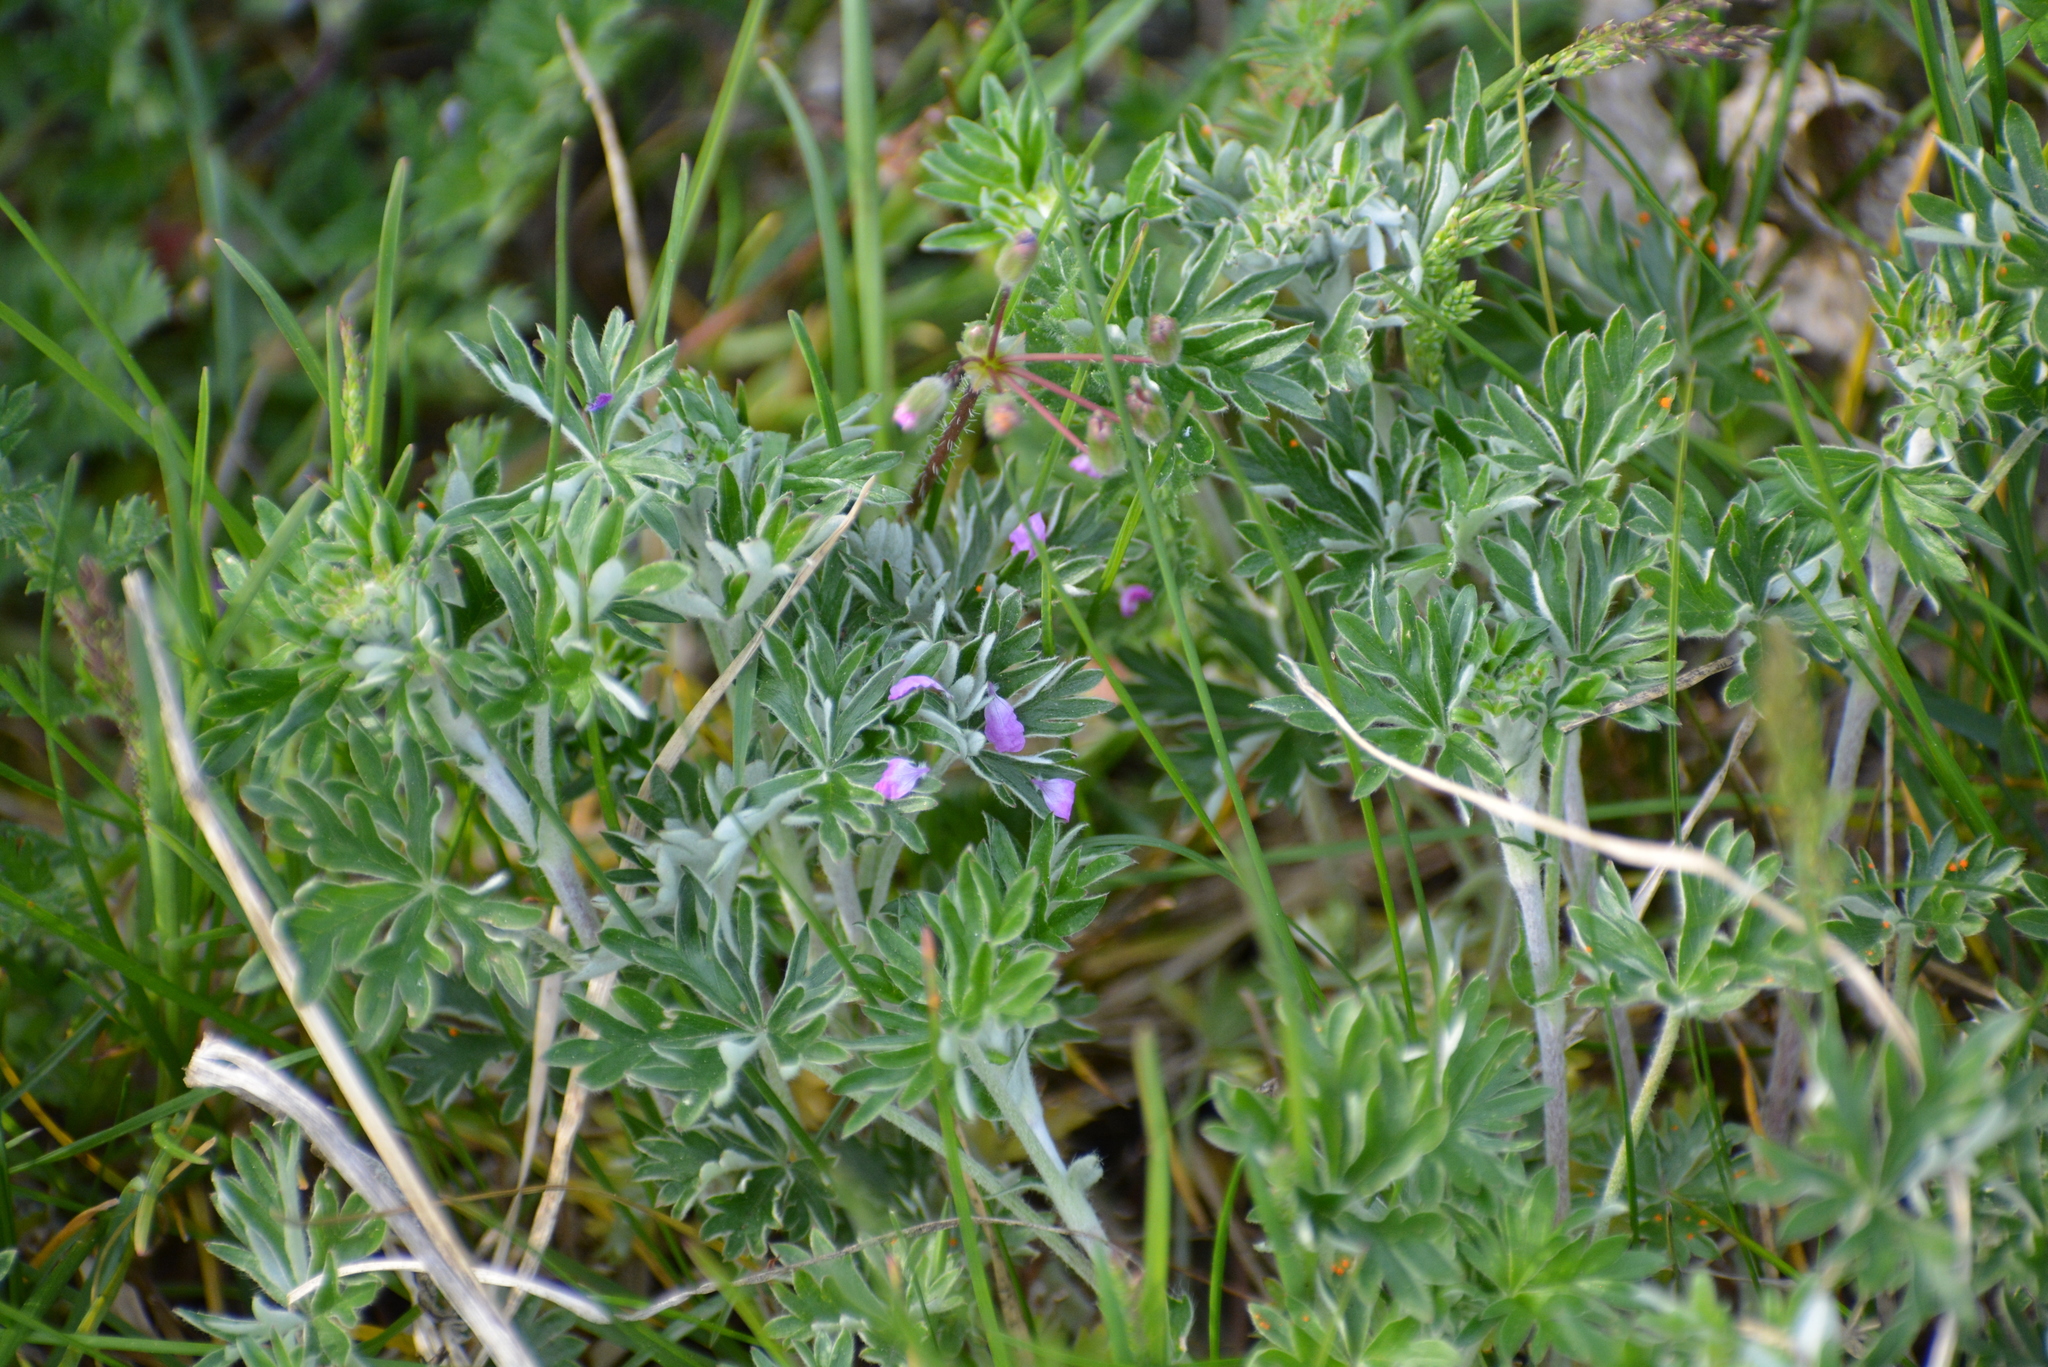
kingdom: Plantae
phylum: Tracheophyta
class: Magnoliopsida
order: Geraniales
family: Geraniaceae
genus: Erodium
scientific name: Erodium cicutarium
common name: Common stork's-bill
